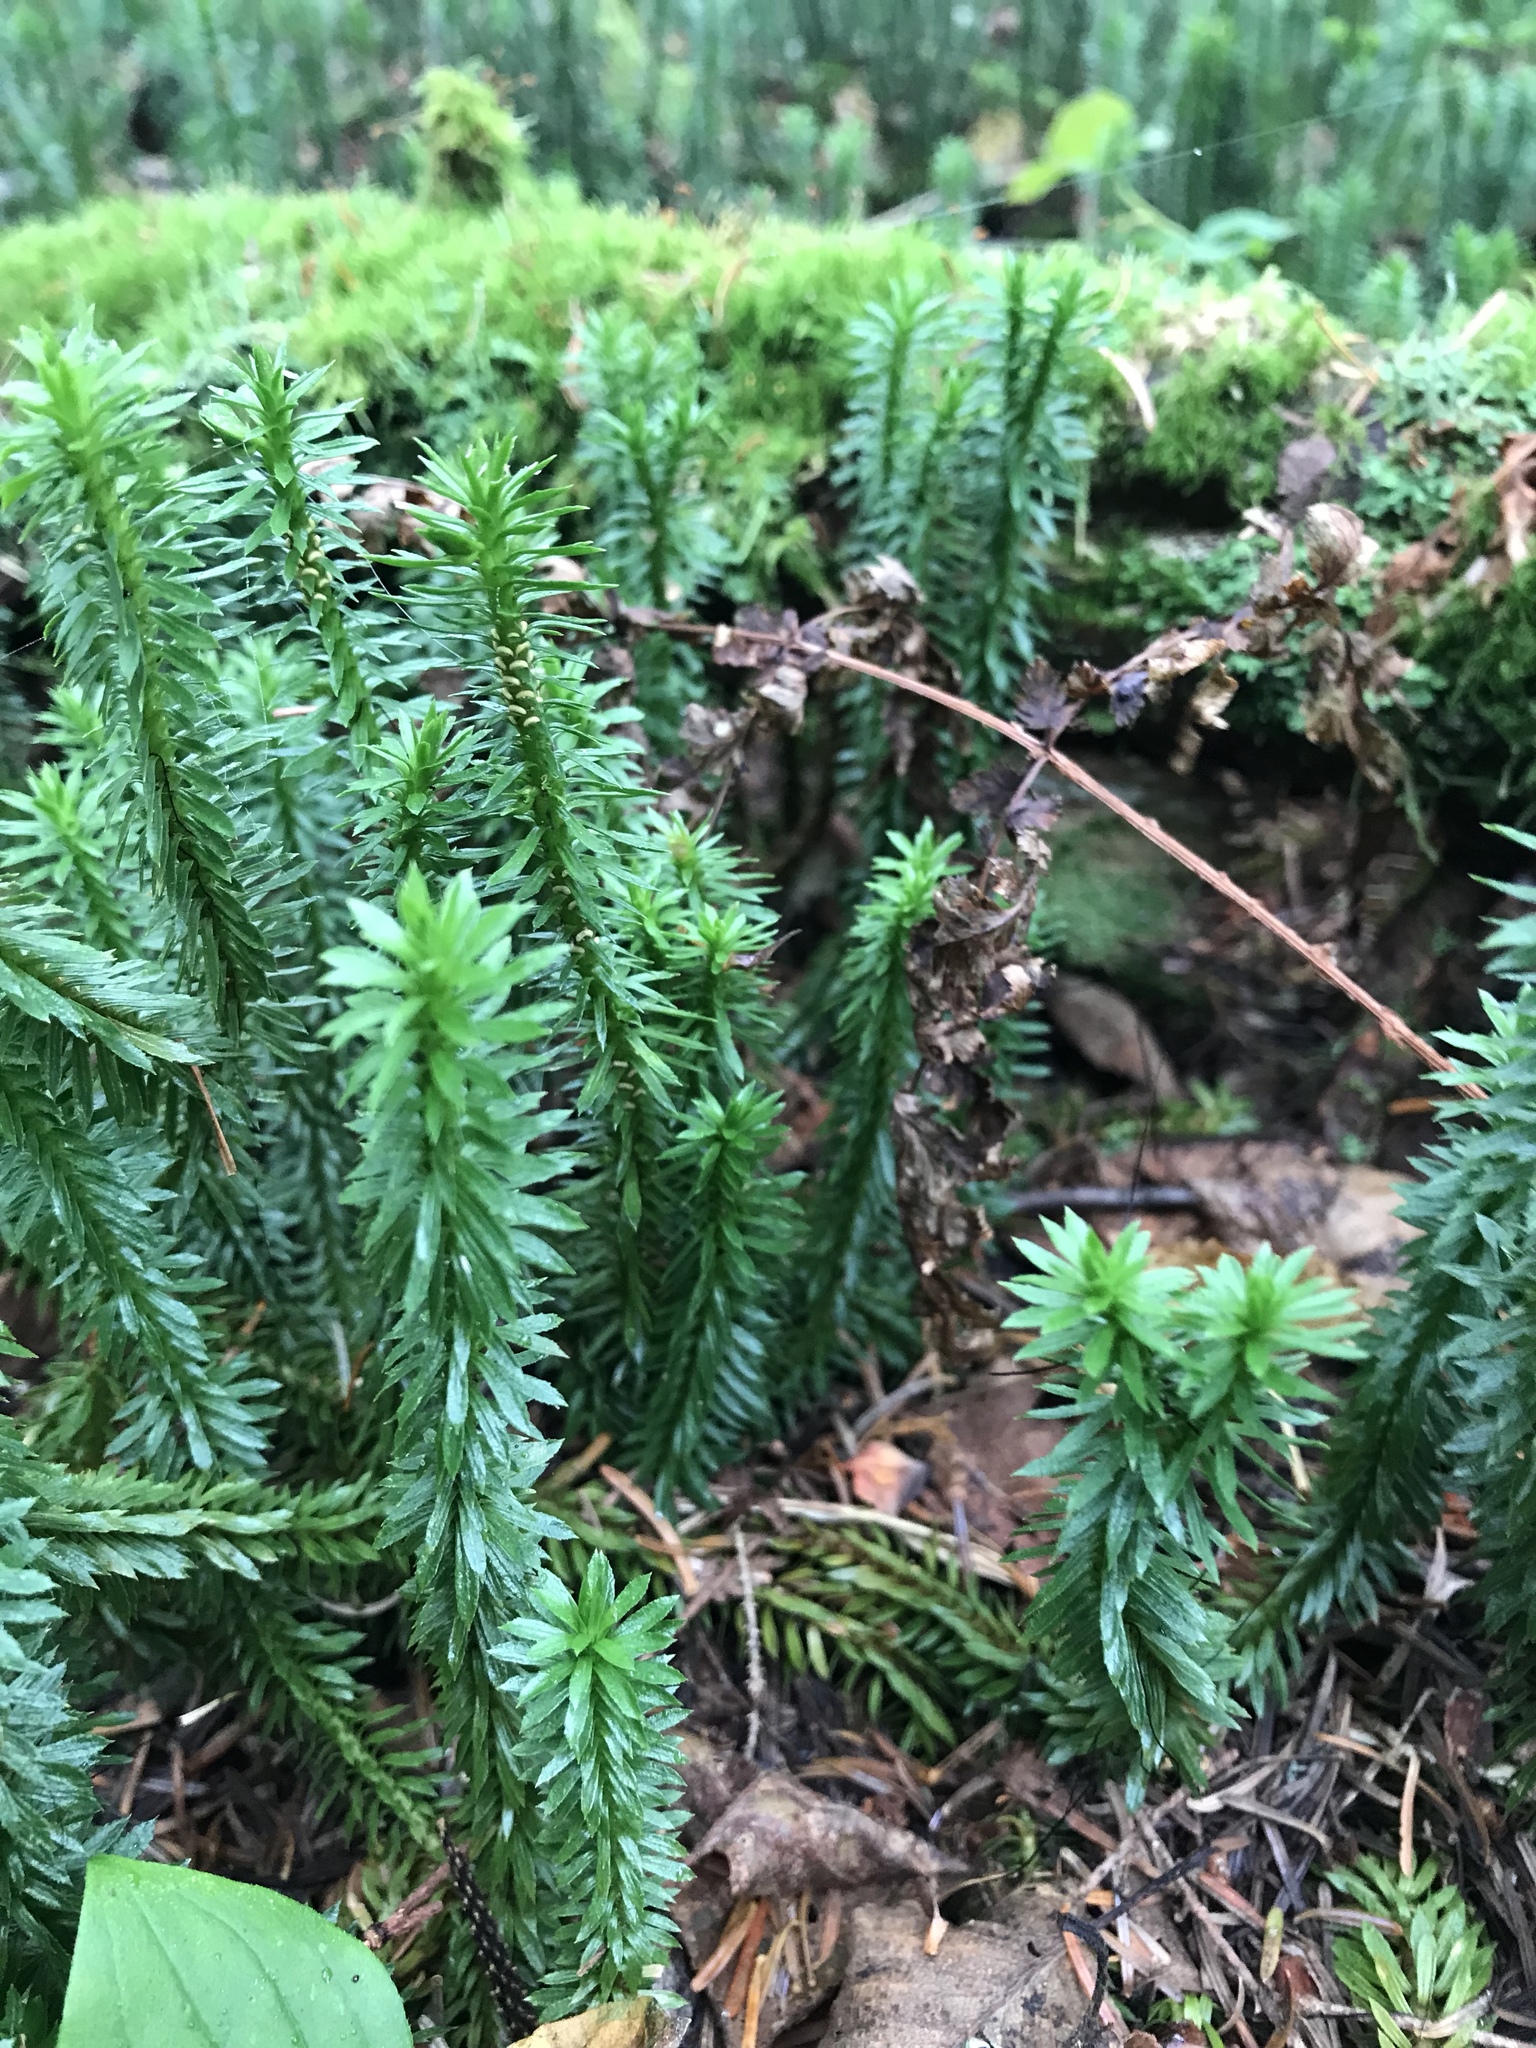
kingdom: Plantae
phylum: Tracheophyta
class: Lycopodiopsida
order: Lycopodiales
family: Lycopodiaceae
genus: Huperzia
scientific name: Huperzia lucidula
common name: Shining clubmoss
